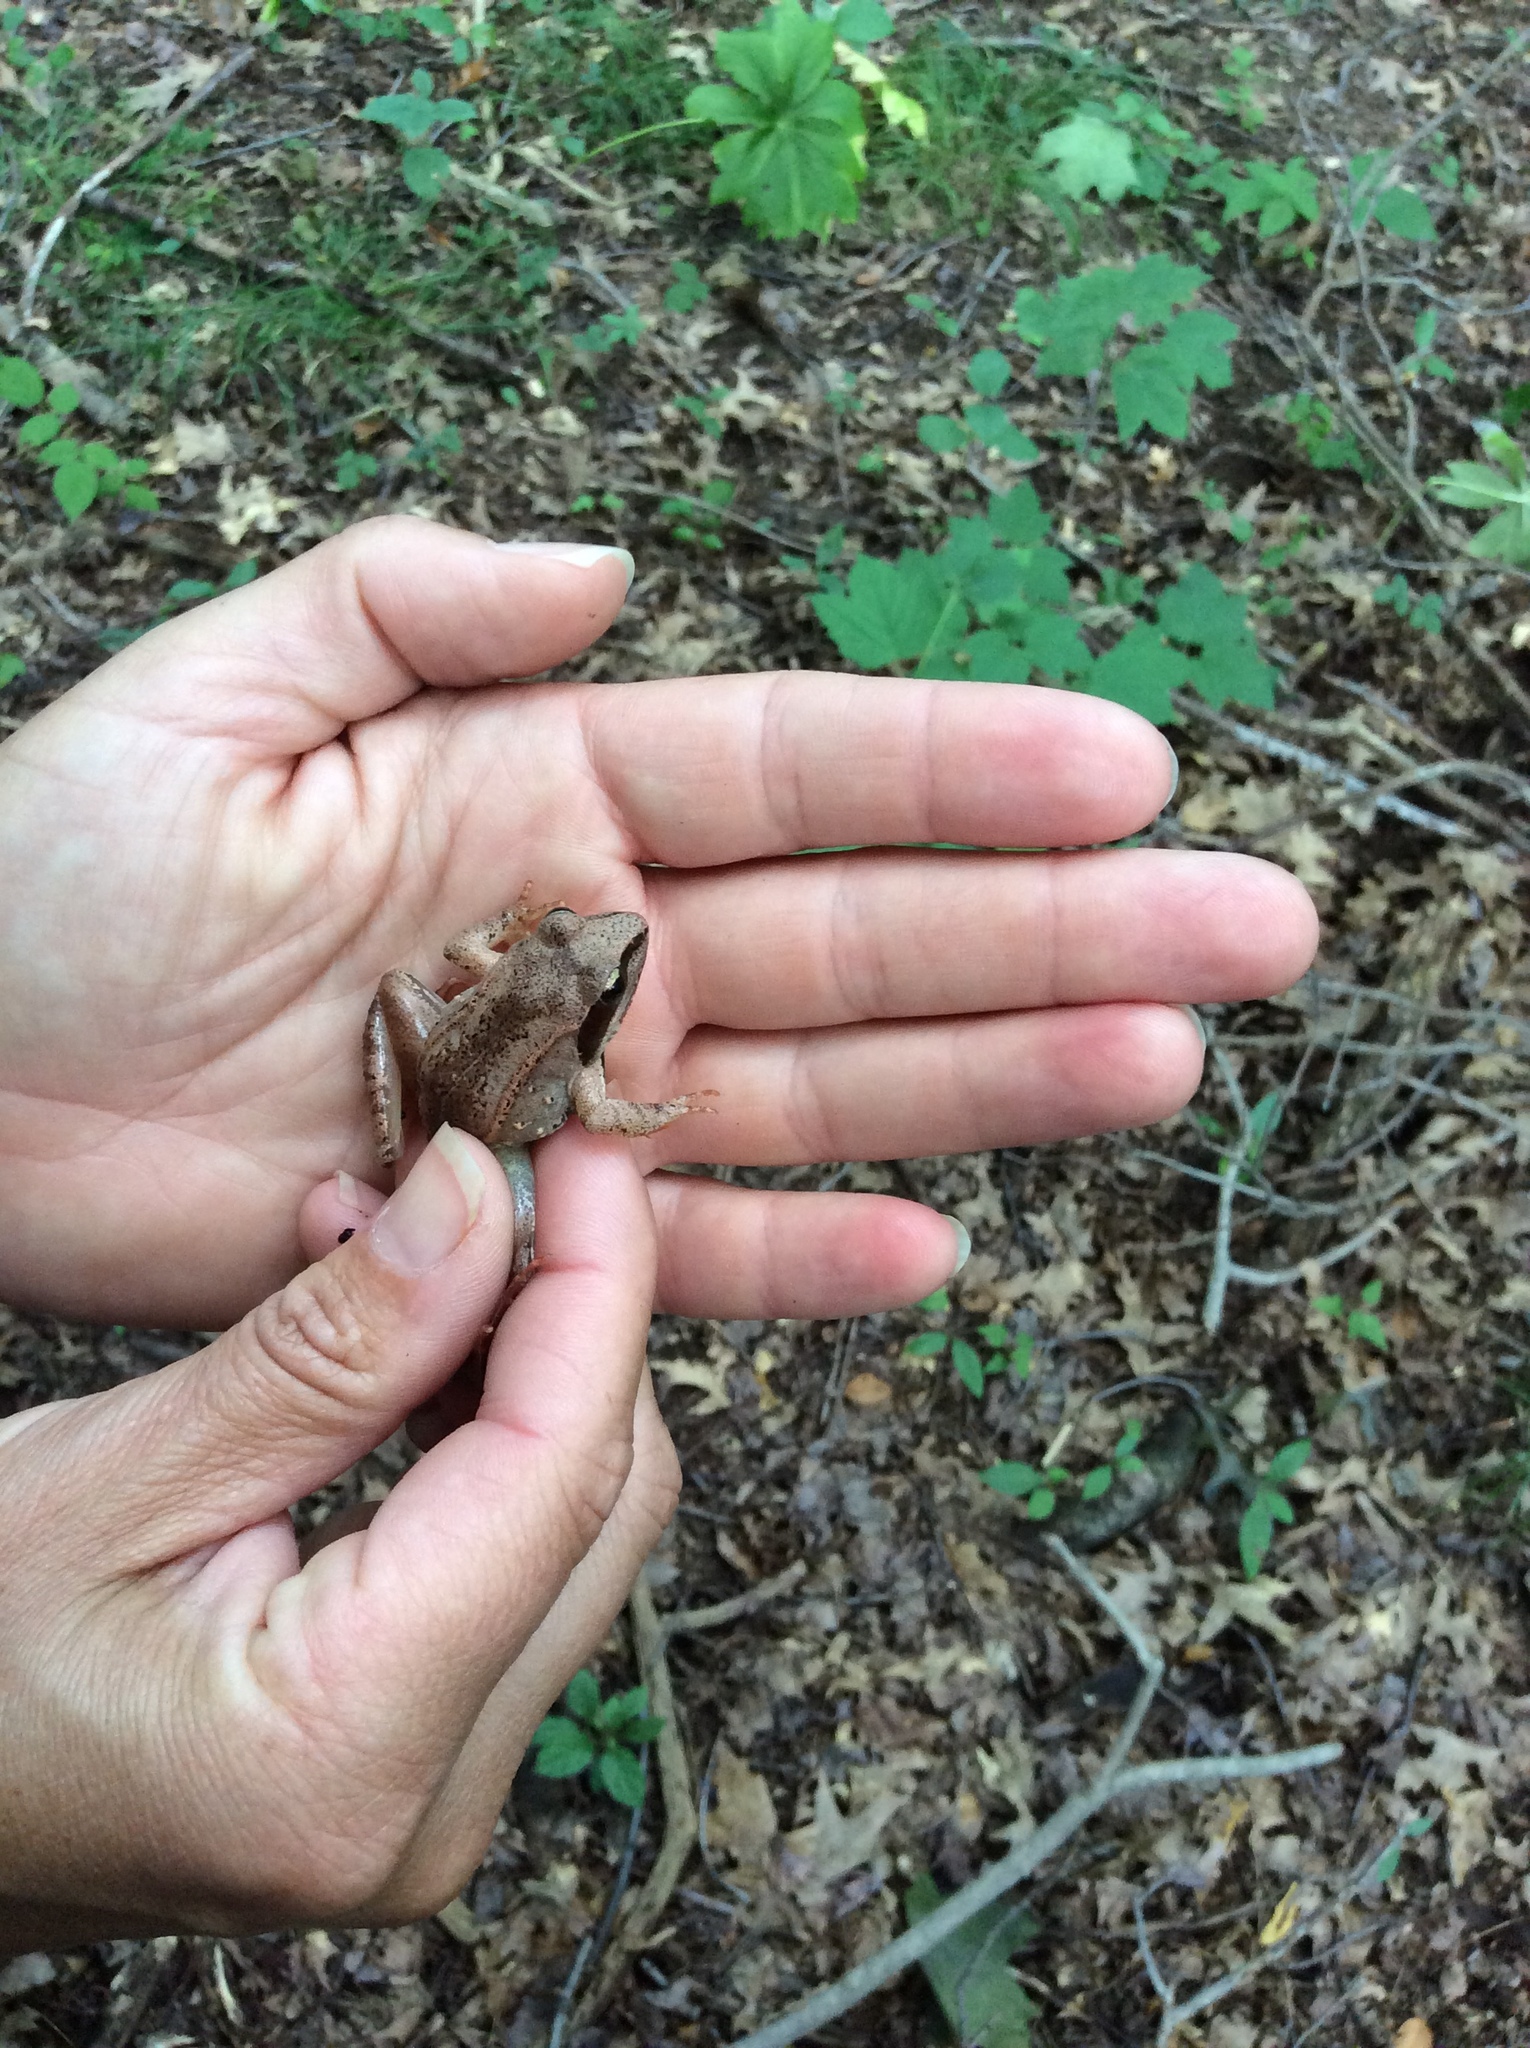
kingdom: Animalia
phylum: Chordata
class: Amphibia
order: Anura
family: Ranidae
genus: Lithobates
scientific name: Lithobates sylvaticus
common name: Wood frog
